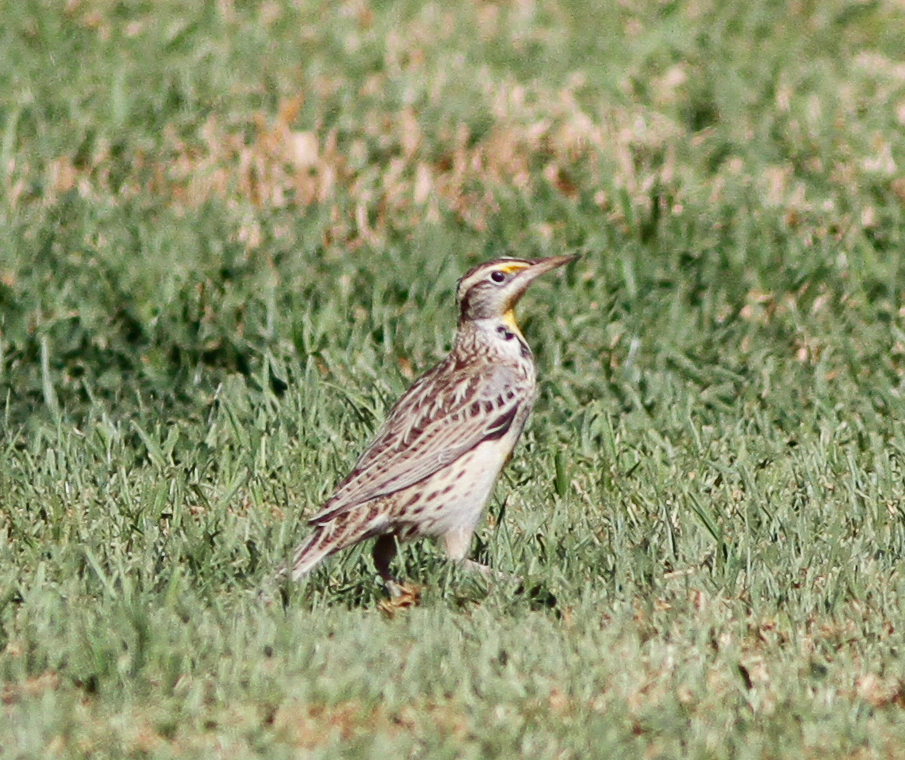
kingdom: Animalia
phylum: Chordata
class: Aves
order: Passeriformes
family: Icteridae
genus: Sturnella
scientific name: Sturnella neglecta
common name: Western meadowlark
